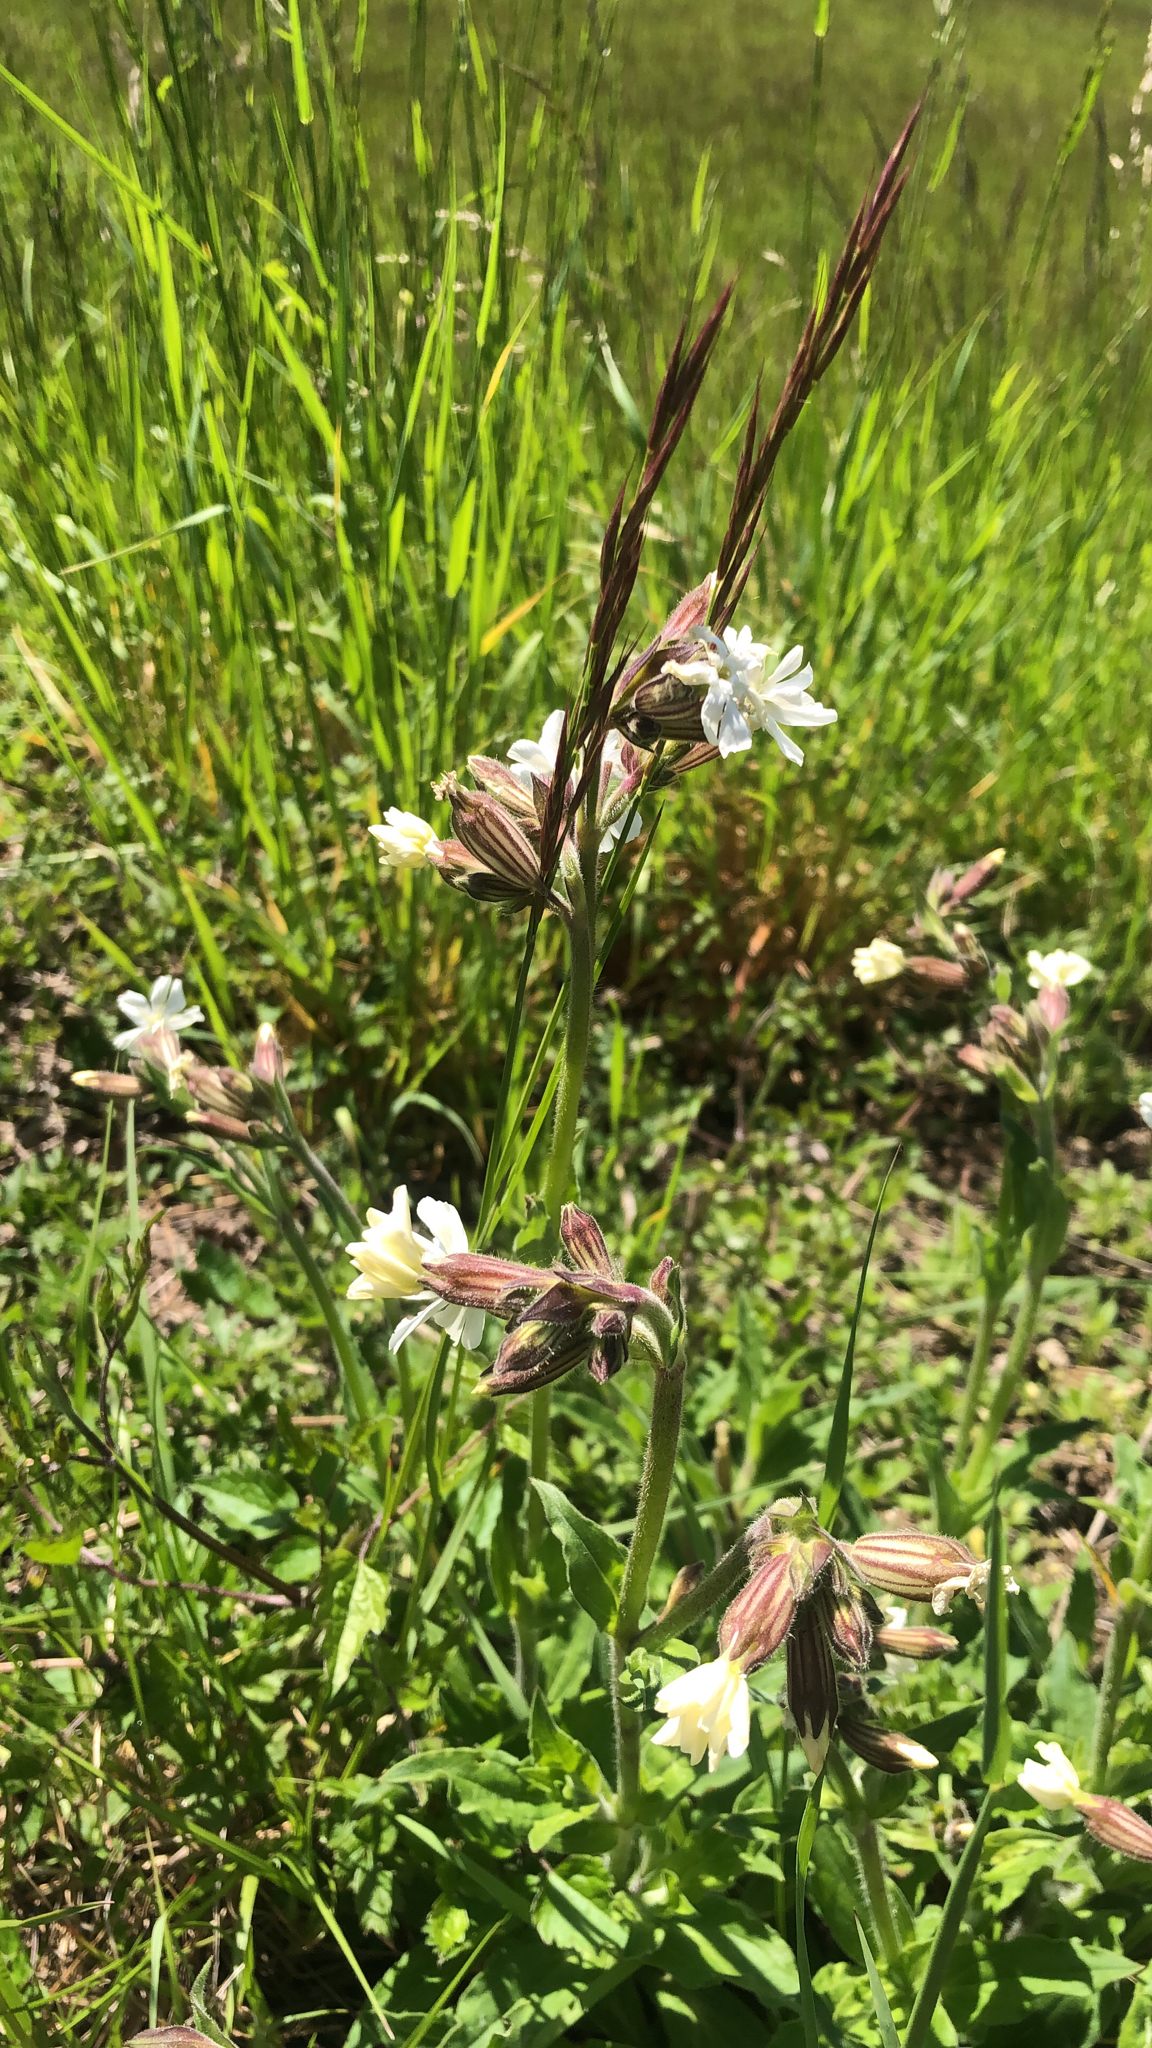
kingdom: Plantae
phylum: Tracheophyta
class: Magnoliopsida
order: Caryophyllales
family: Caryophyllaceae
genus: Silene
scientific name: Silene latifolia
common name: White campion
